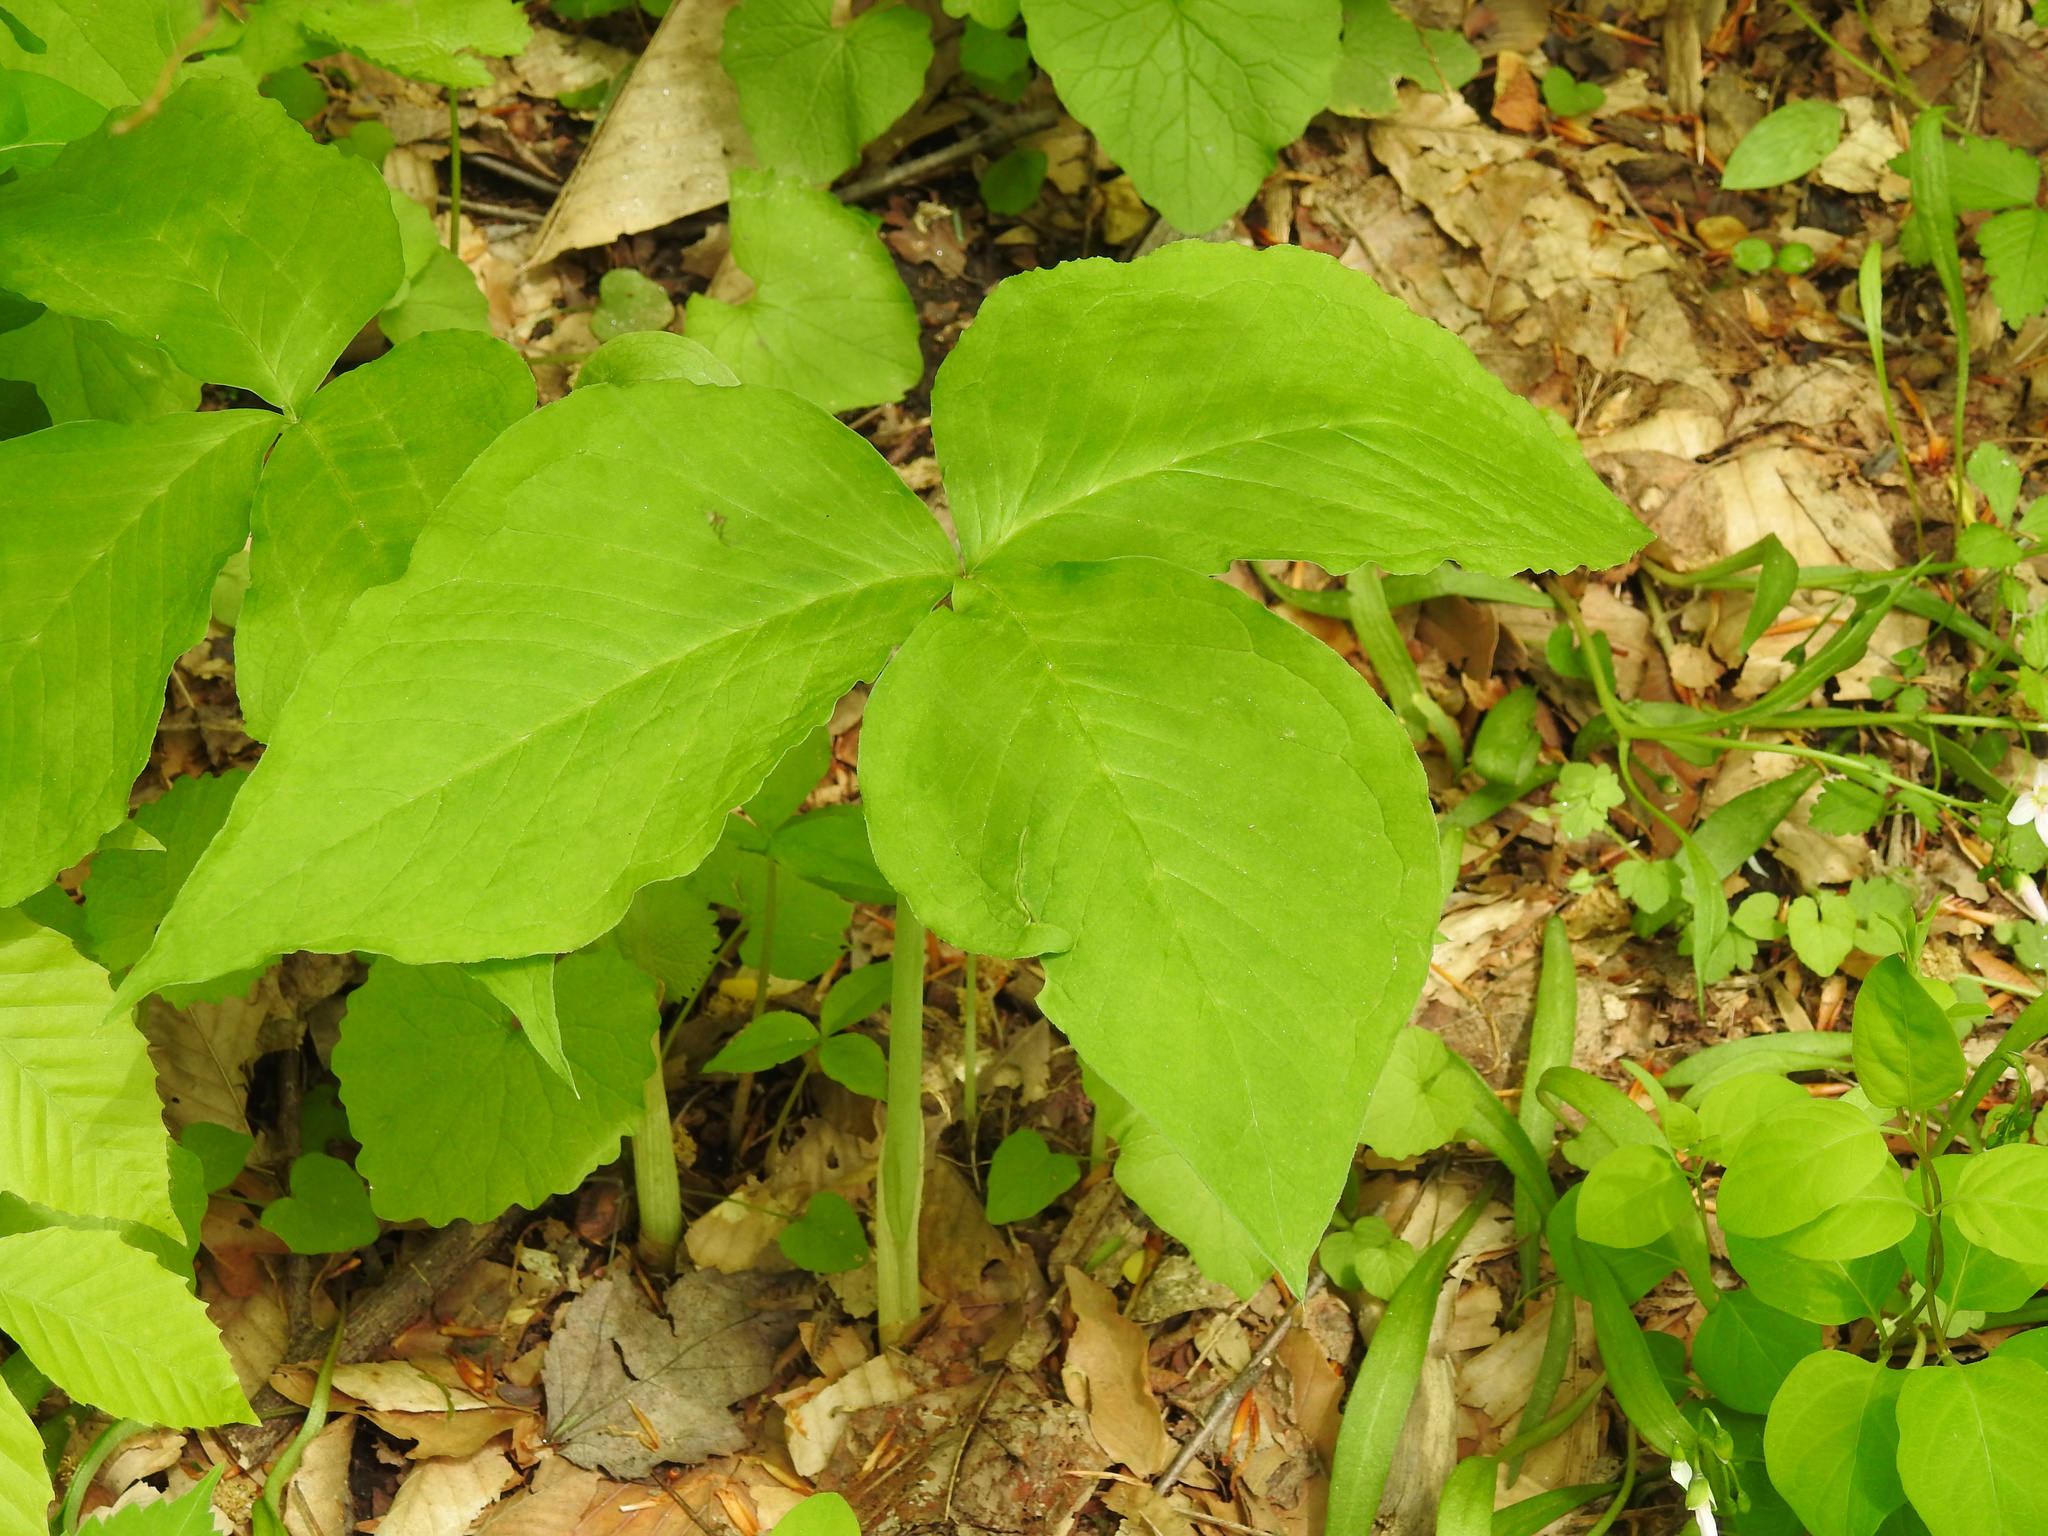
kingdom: Plantae
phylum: Tracheophyta
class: Liliopsida
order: Alismatales
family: Araceae
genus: Arisaema
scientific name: Arisaema triphyllum
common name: Jack-in-the-pulpit
